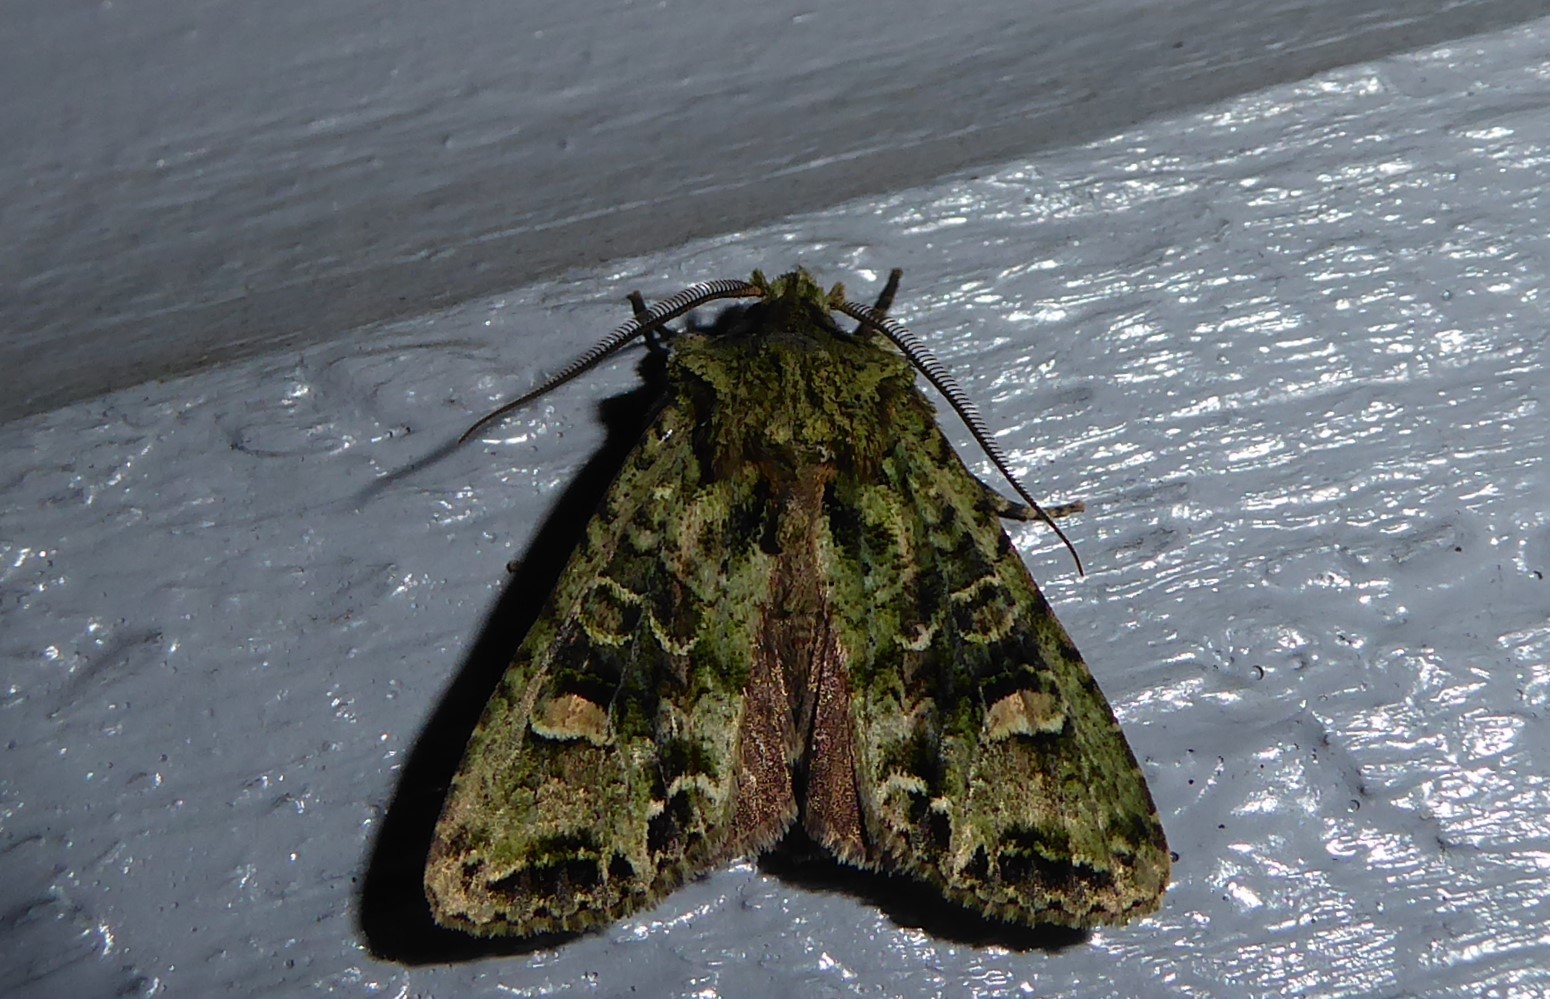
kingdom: Animalia
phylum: Arthropoda
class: Insecta
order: Lepidoptera
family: Noctuidae
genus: Ichneutica
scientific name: Ichneutica
